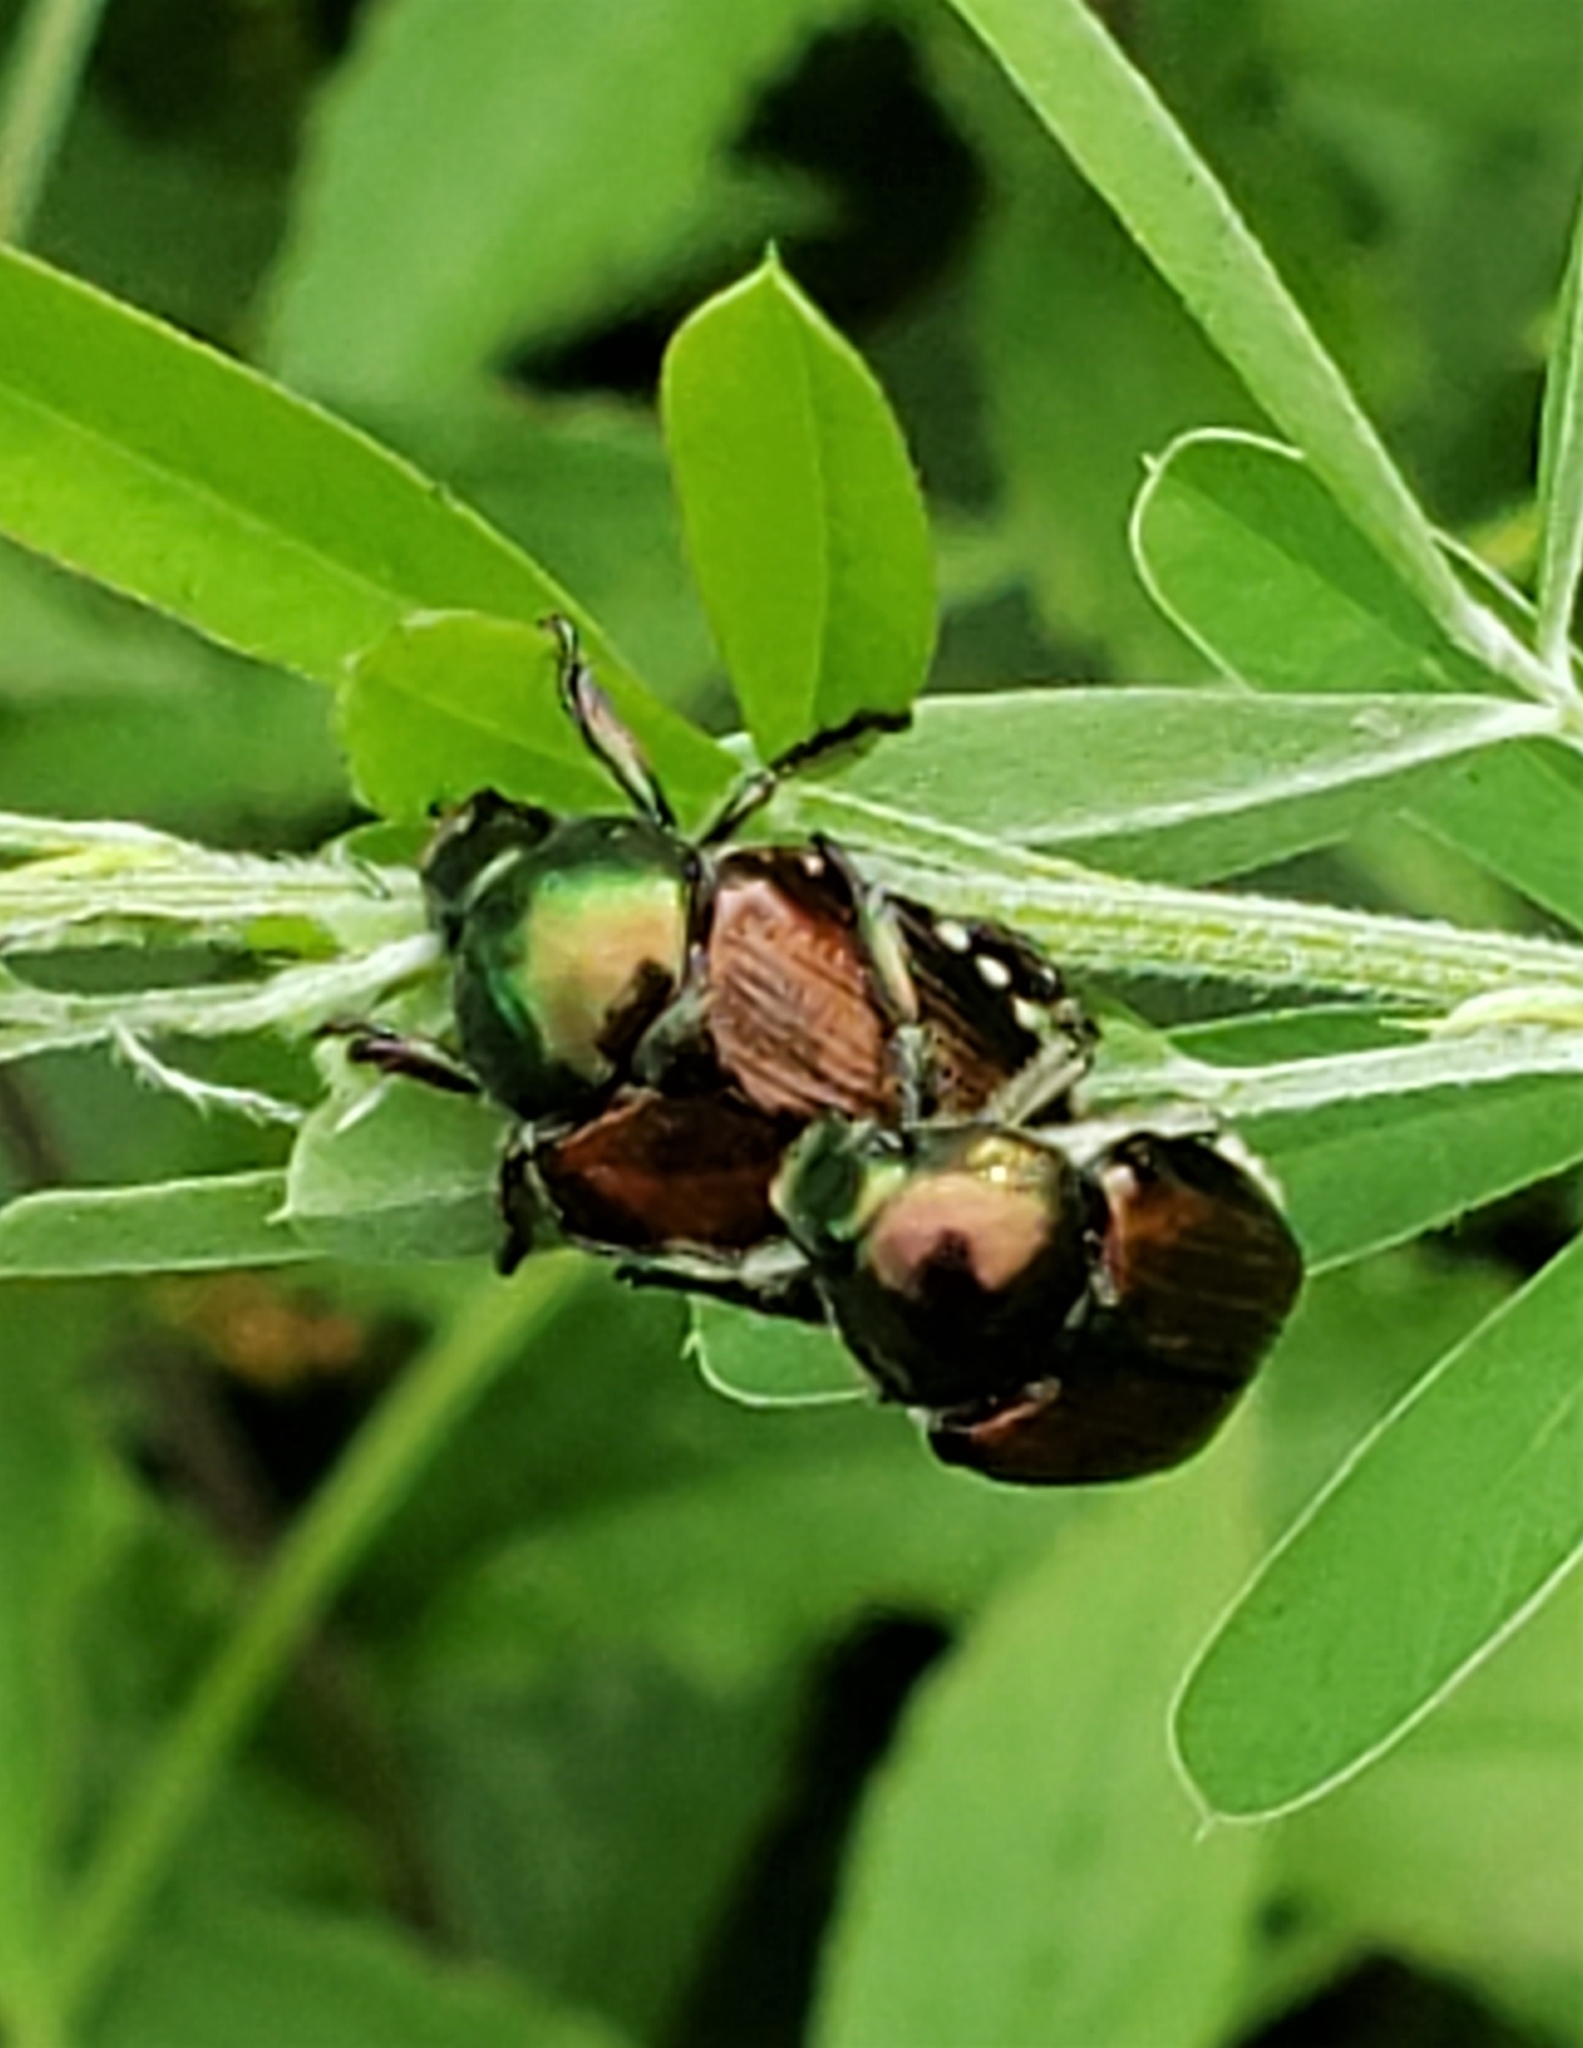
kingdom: Animalia
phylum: Arthropoda
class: Insecta
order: Coleoptera
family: Scarabaeidae
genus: Popillia
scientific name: Popillia japonica
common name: Japanese beetle
